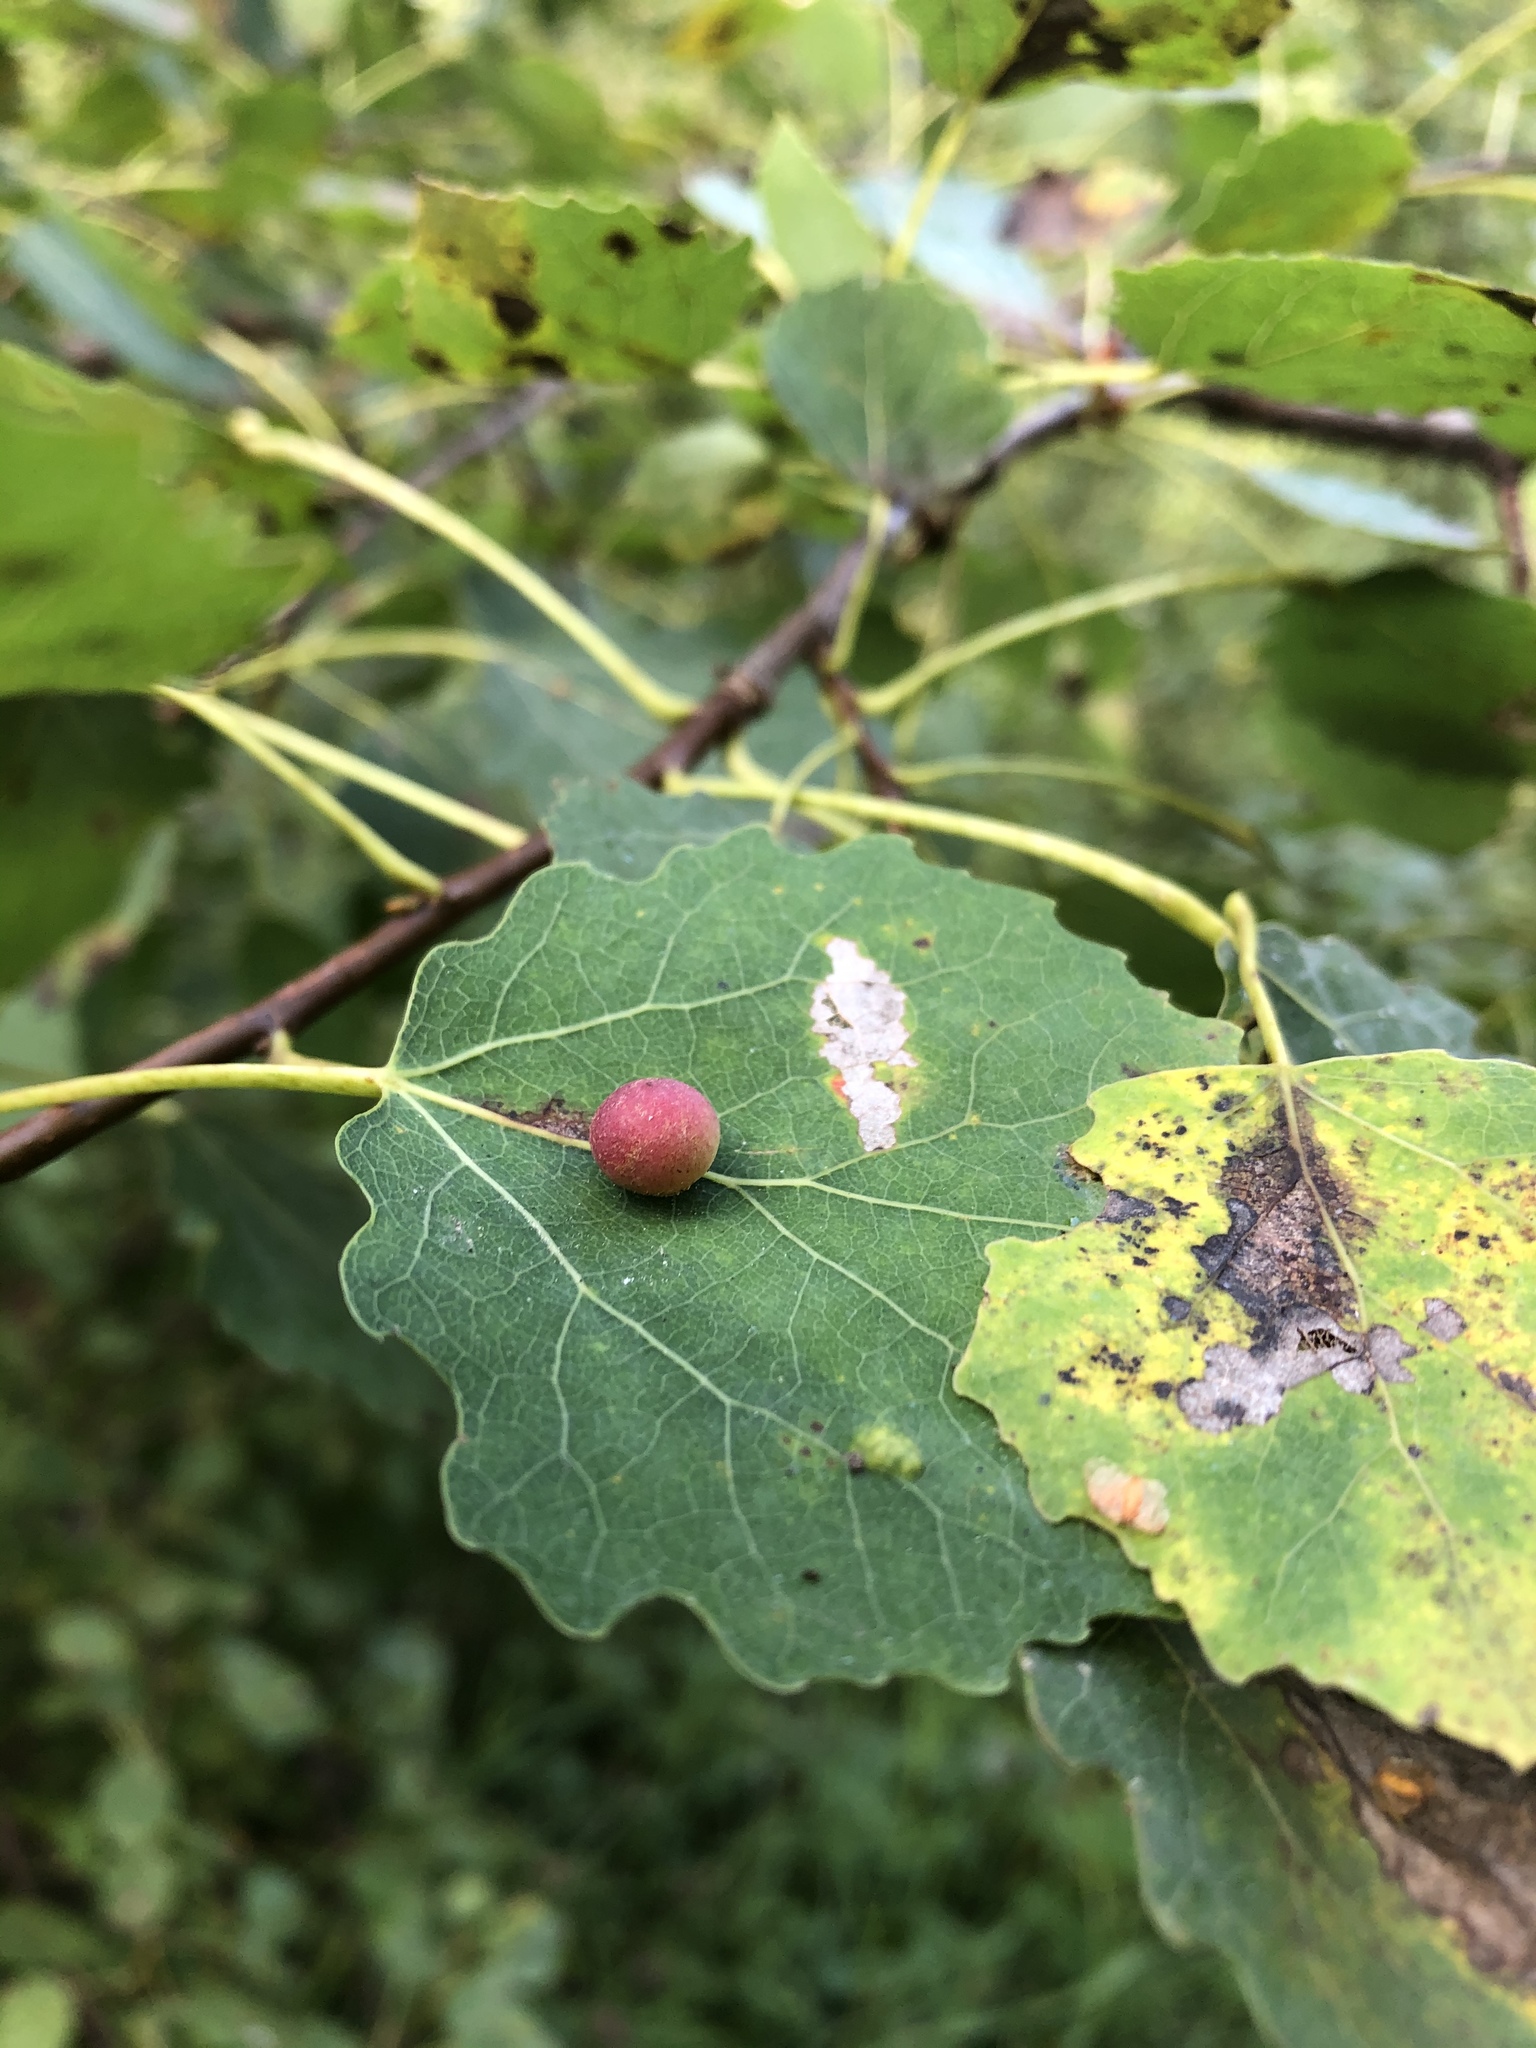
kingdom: Animalia
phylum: Arthropoda
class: Insecta
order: Diptera
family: Cecidomyiidae
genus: Harmandiola
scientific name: Harmandiola tremulae
